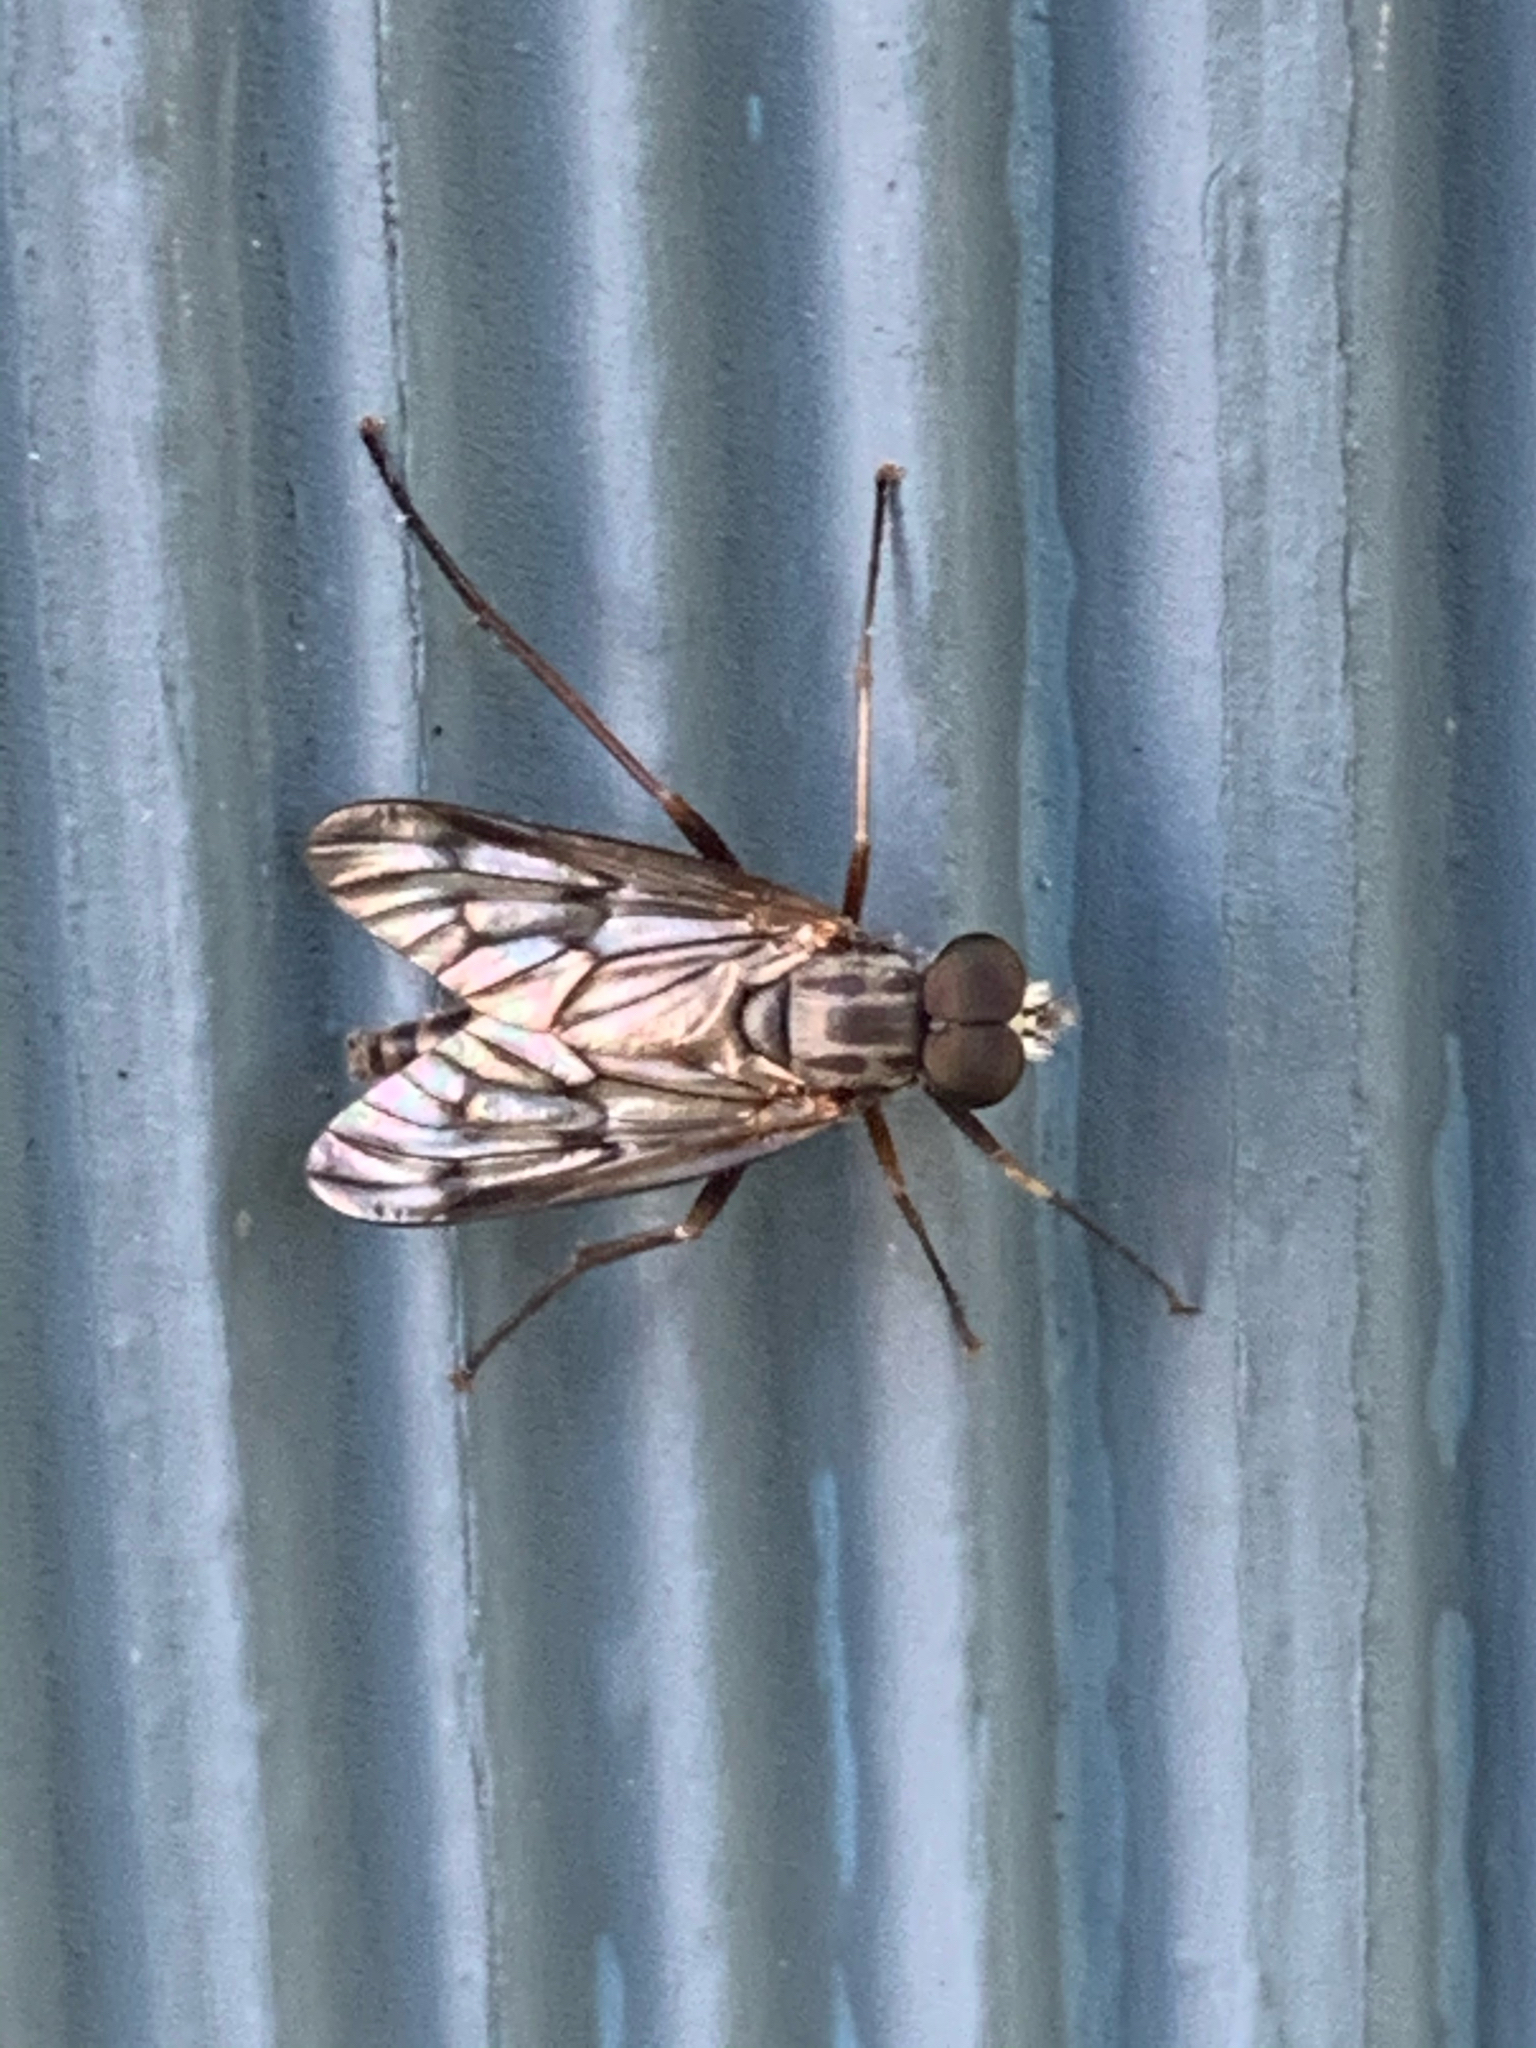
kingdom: Animalia
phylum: Arthropoda
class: Insecta
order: Diptera
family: Rhagionidae
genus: Rhagio
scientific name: Rhagio mystaceus
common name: Common snipe fly
